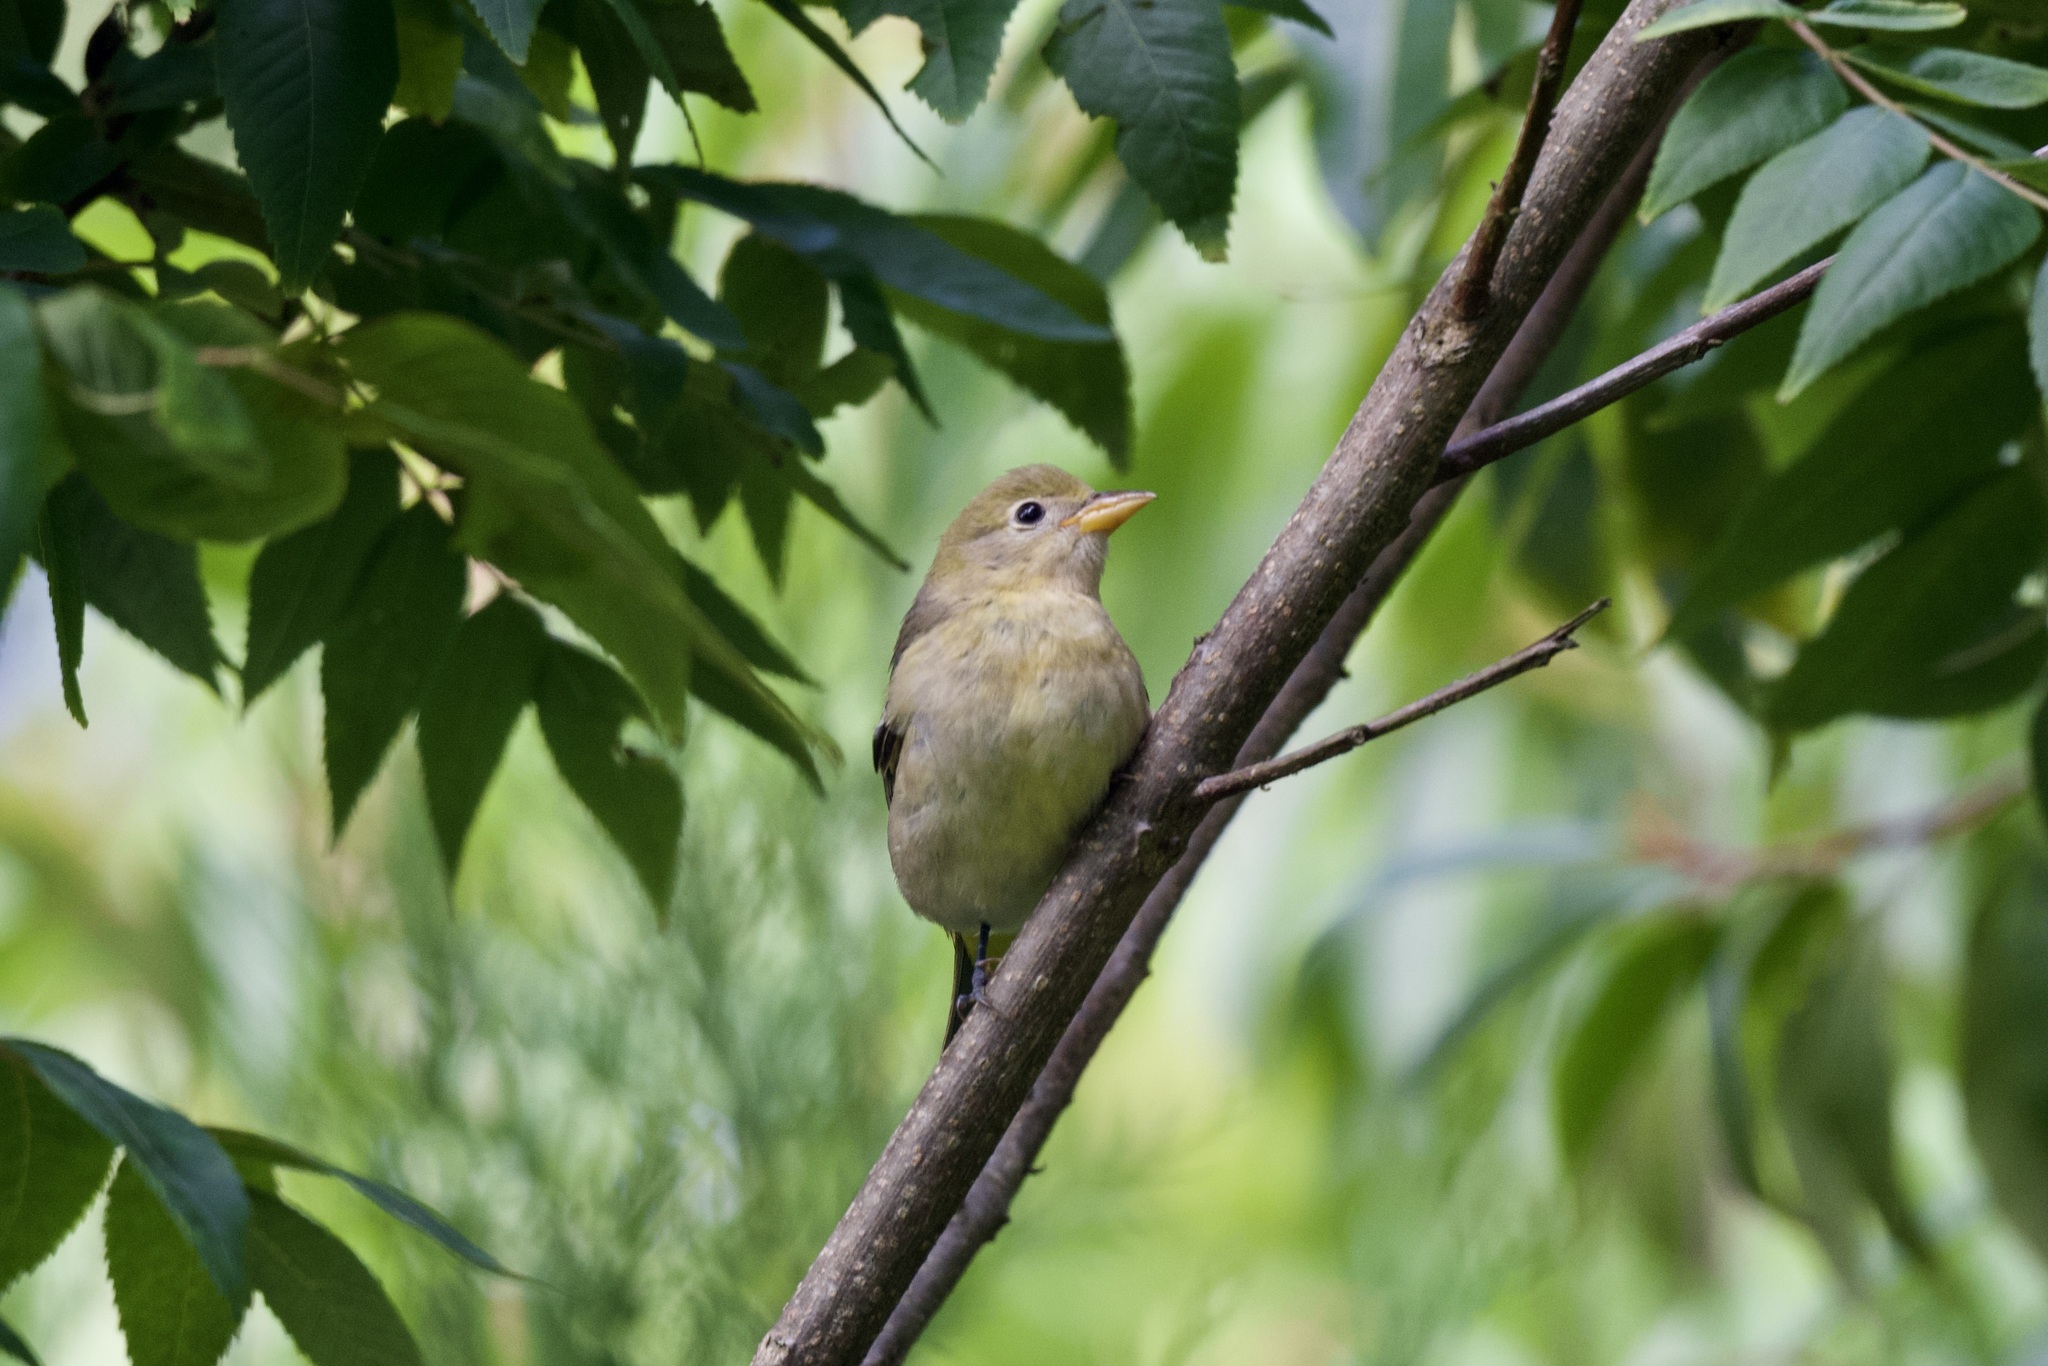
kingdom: Animalia
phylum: Chordata
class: Aves
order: Passeriformes
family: Cardinalidae
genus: Piranga
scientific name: Piranga ludoviciana
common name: Western tanager
